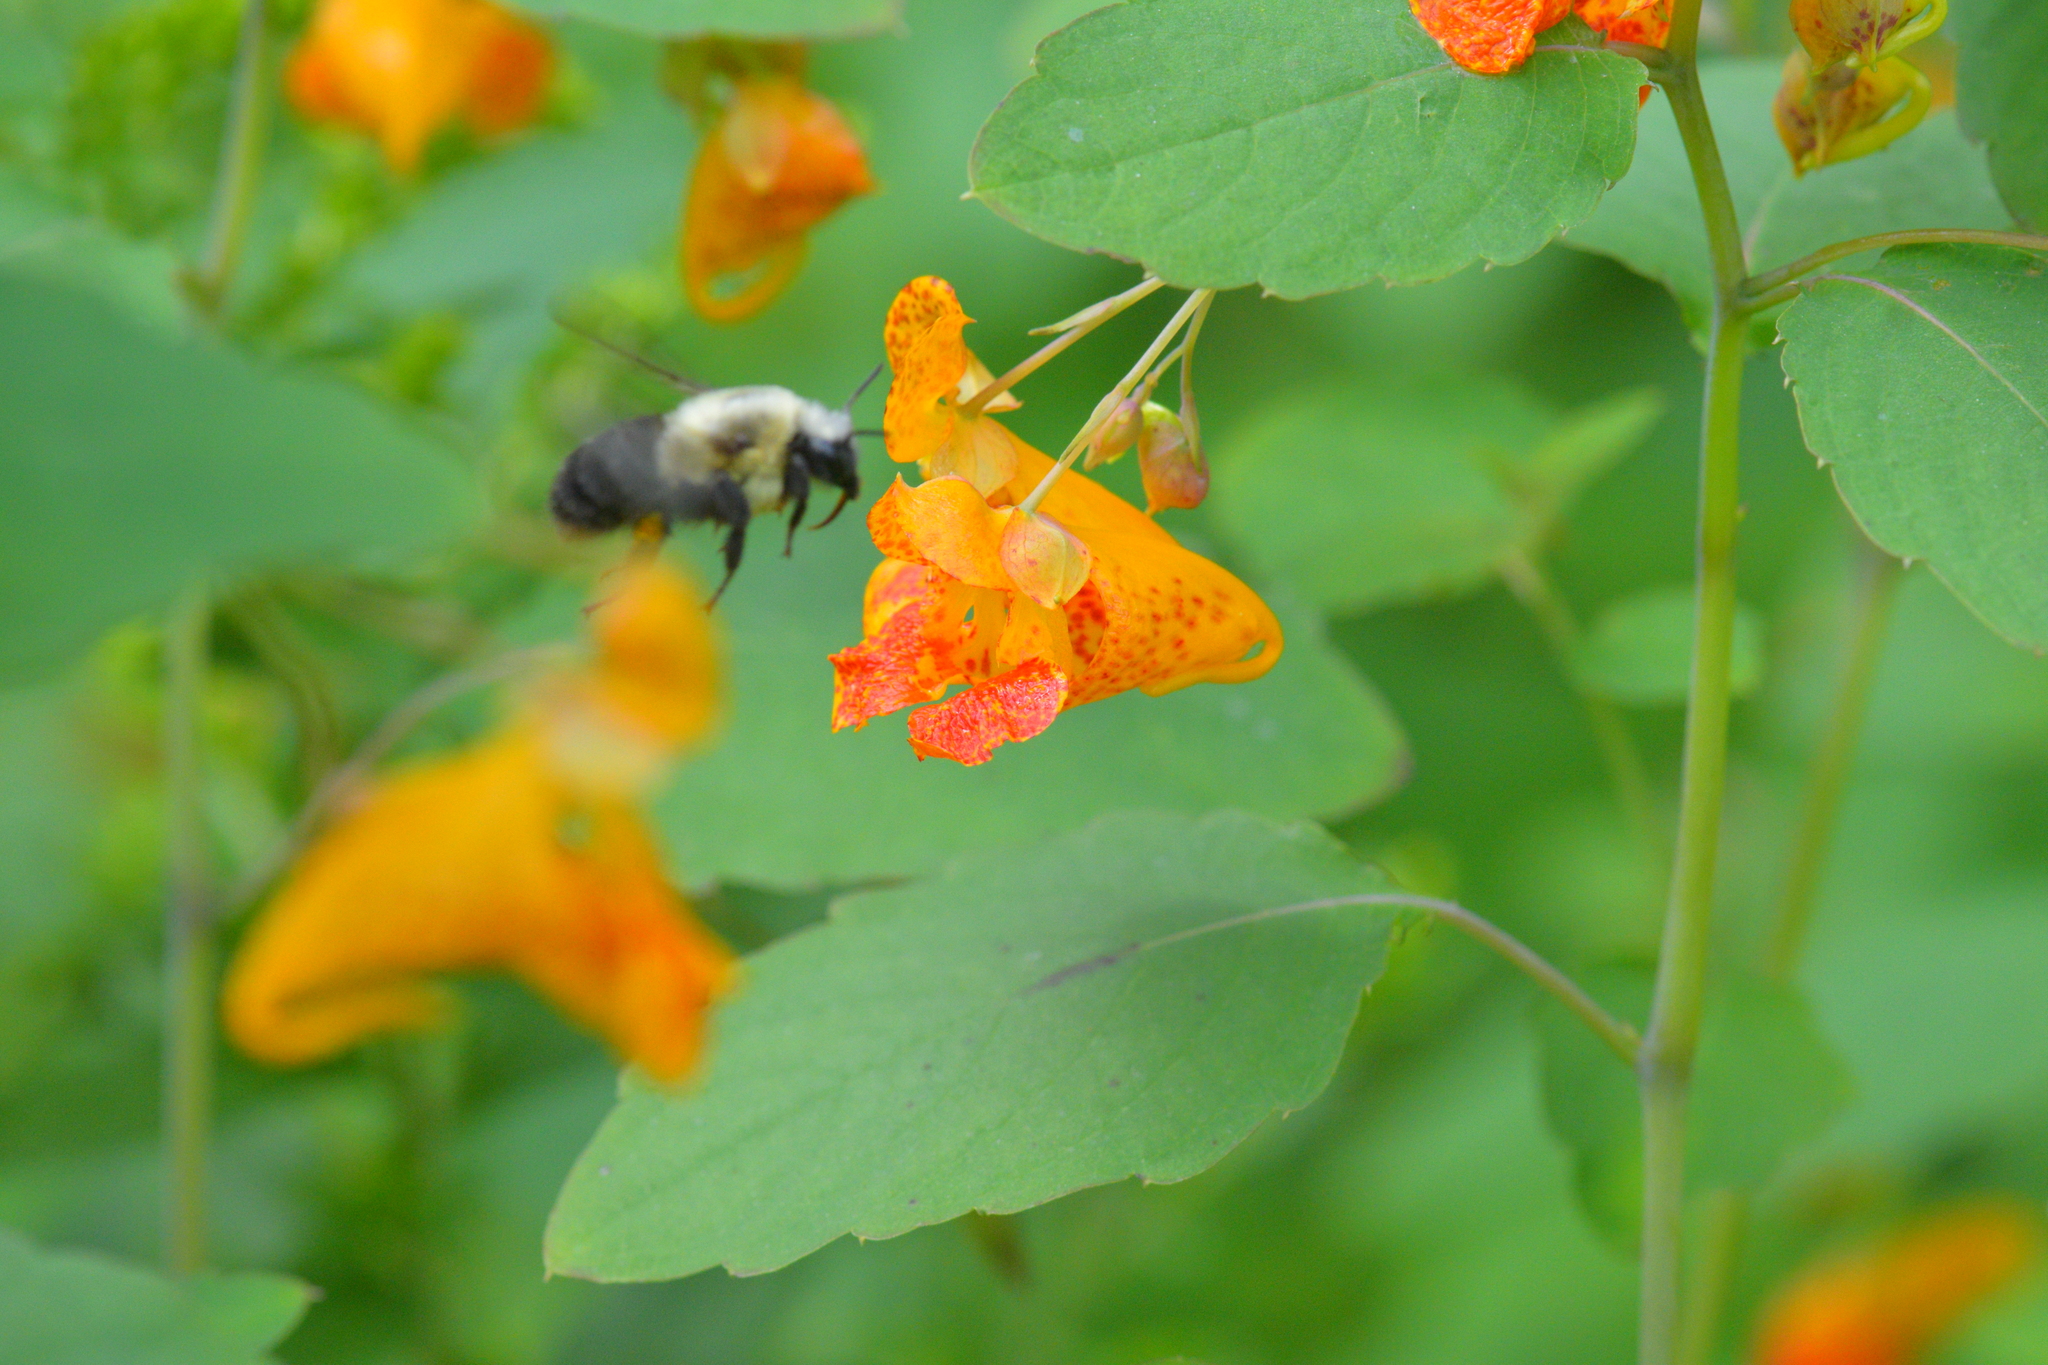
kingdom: Animalia
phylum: Arthropoda
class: Insecta
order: Hymenoptera
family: Apidae
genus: Bombus
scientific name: Bombus impatiens
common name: Common eastern bumble bee
